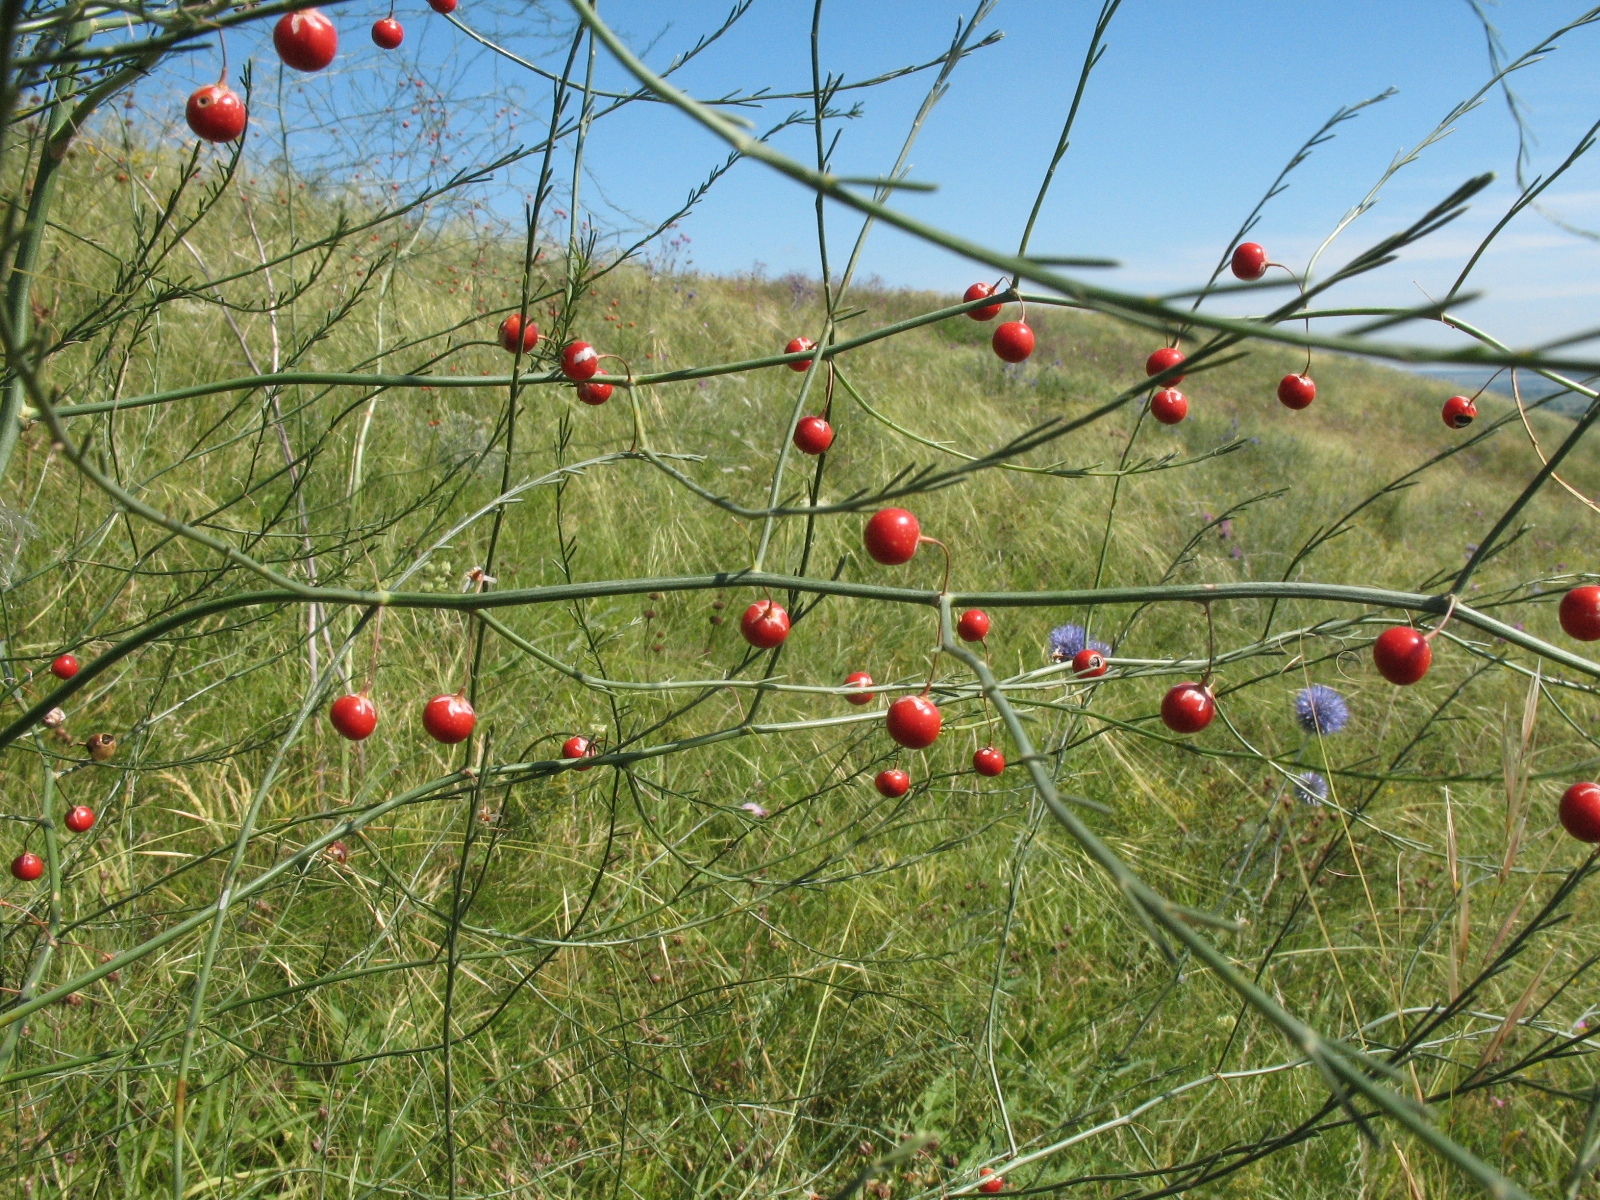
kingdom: Plantae
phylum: Tracheophyta
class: Liliopsida
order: Asparagales
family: Asparagaceae
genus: Asparagus
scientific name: Asparagus officinalis
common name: Garden asparagus
